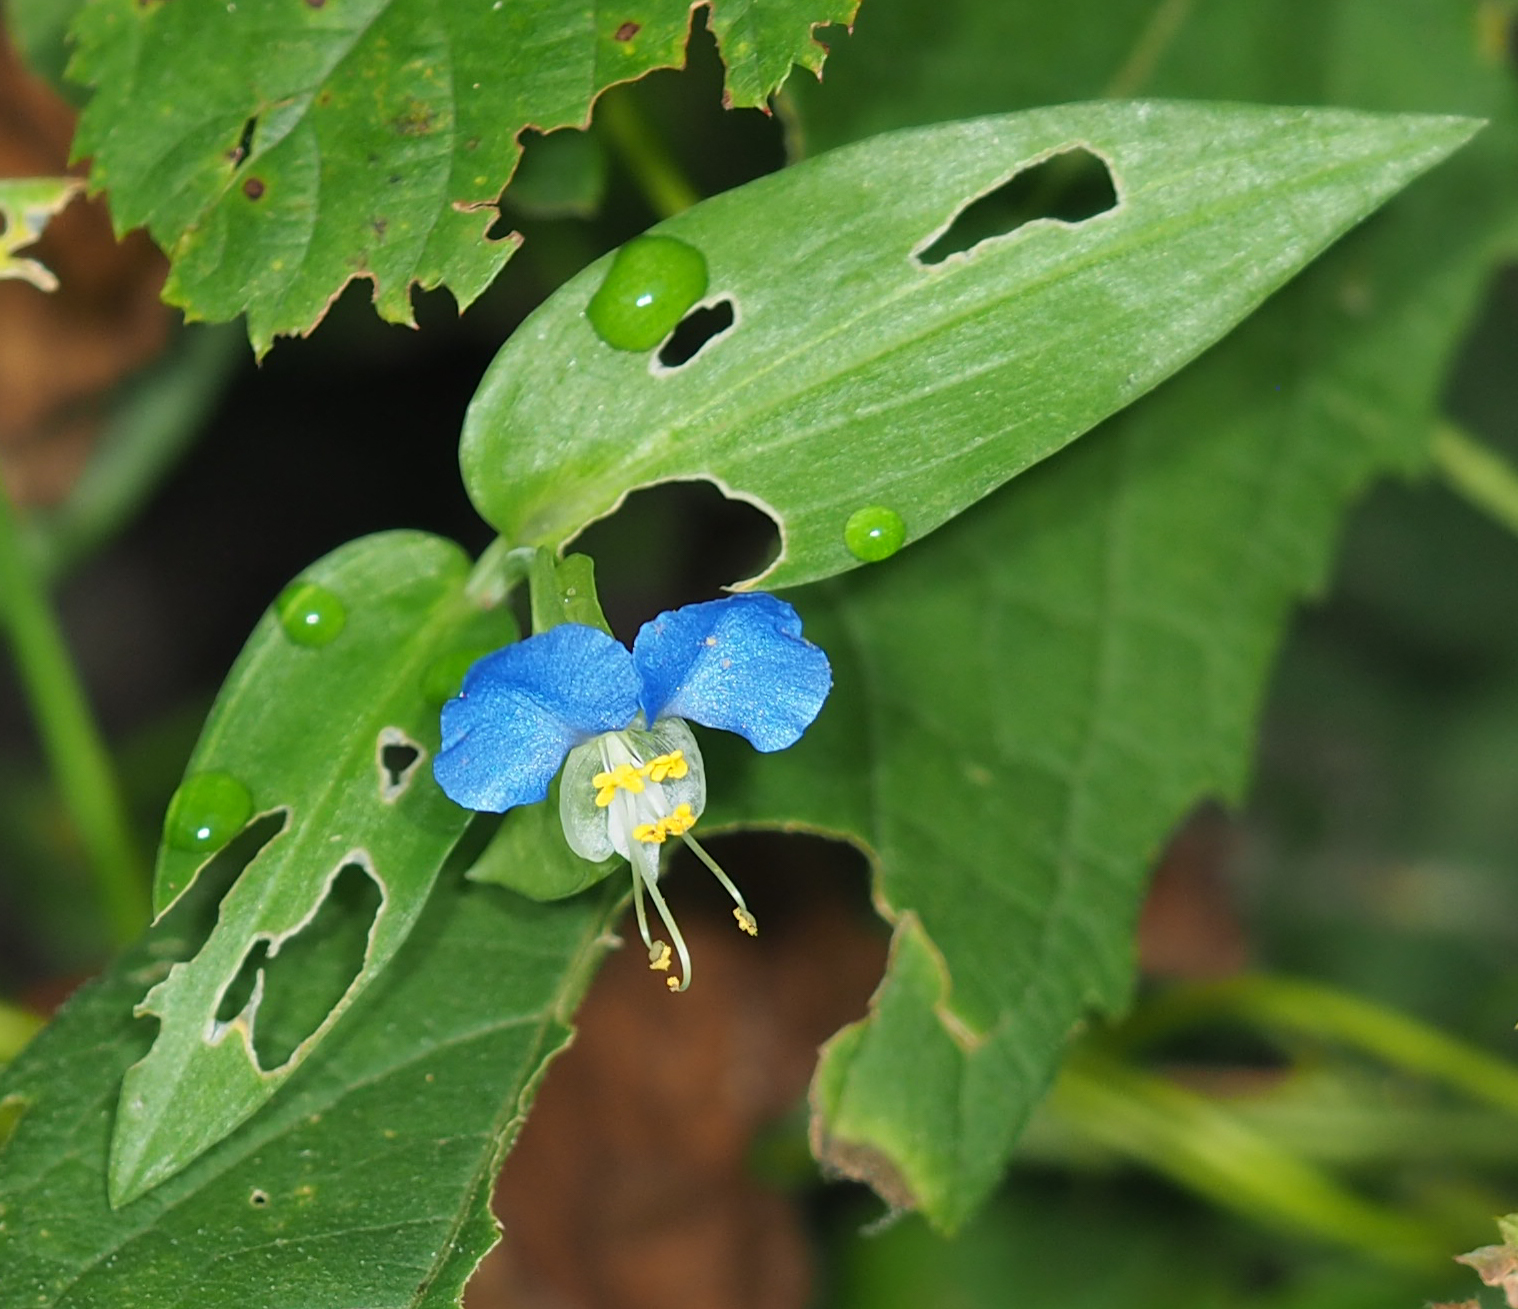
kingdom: Plantae
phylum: Tracheophyta
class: Liliopsida
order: Commelinales
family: Commelinaceae
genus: Commelina
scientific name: Commelina communis
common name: Asiatic dayflower
